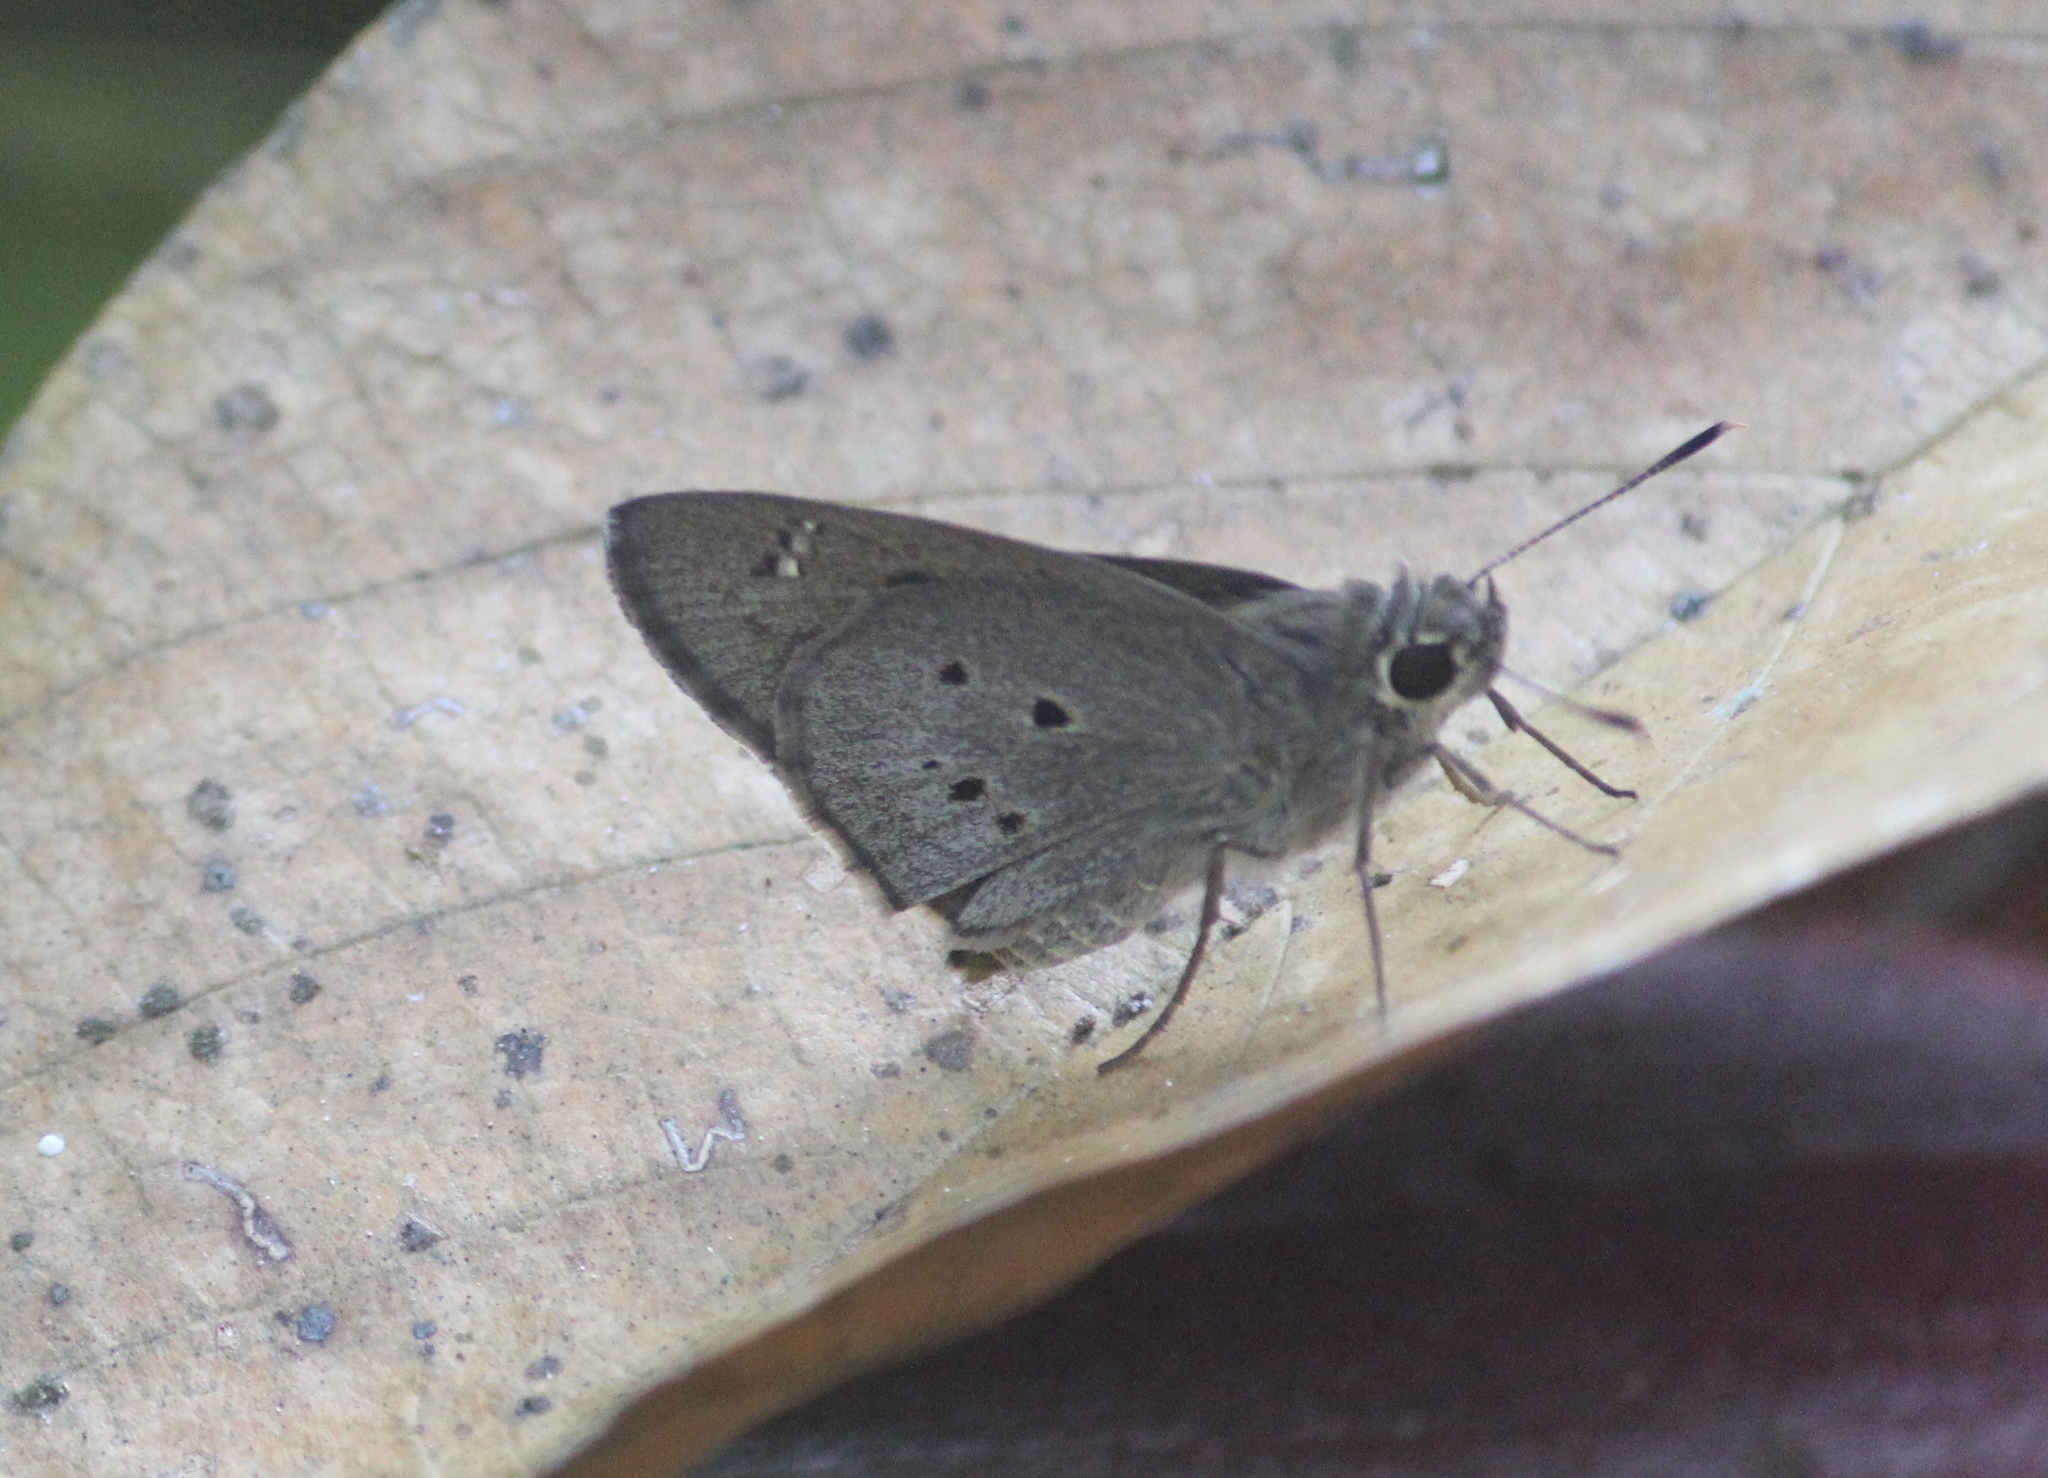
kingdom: Animalia
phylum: Arthropoda
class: Insecta
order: Lepidoptera
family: Hesperiidae
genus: Suastus
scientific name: Suastus gremius
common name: Indian palm bob
